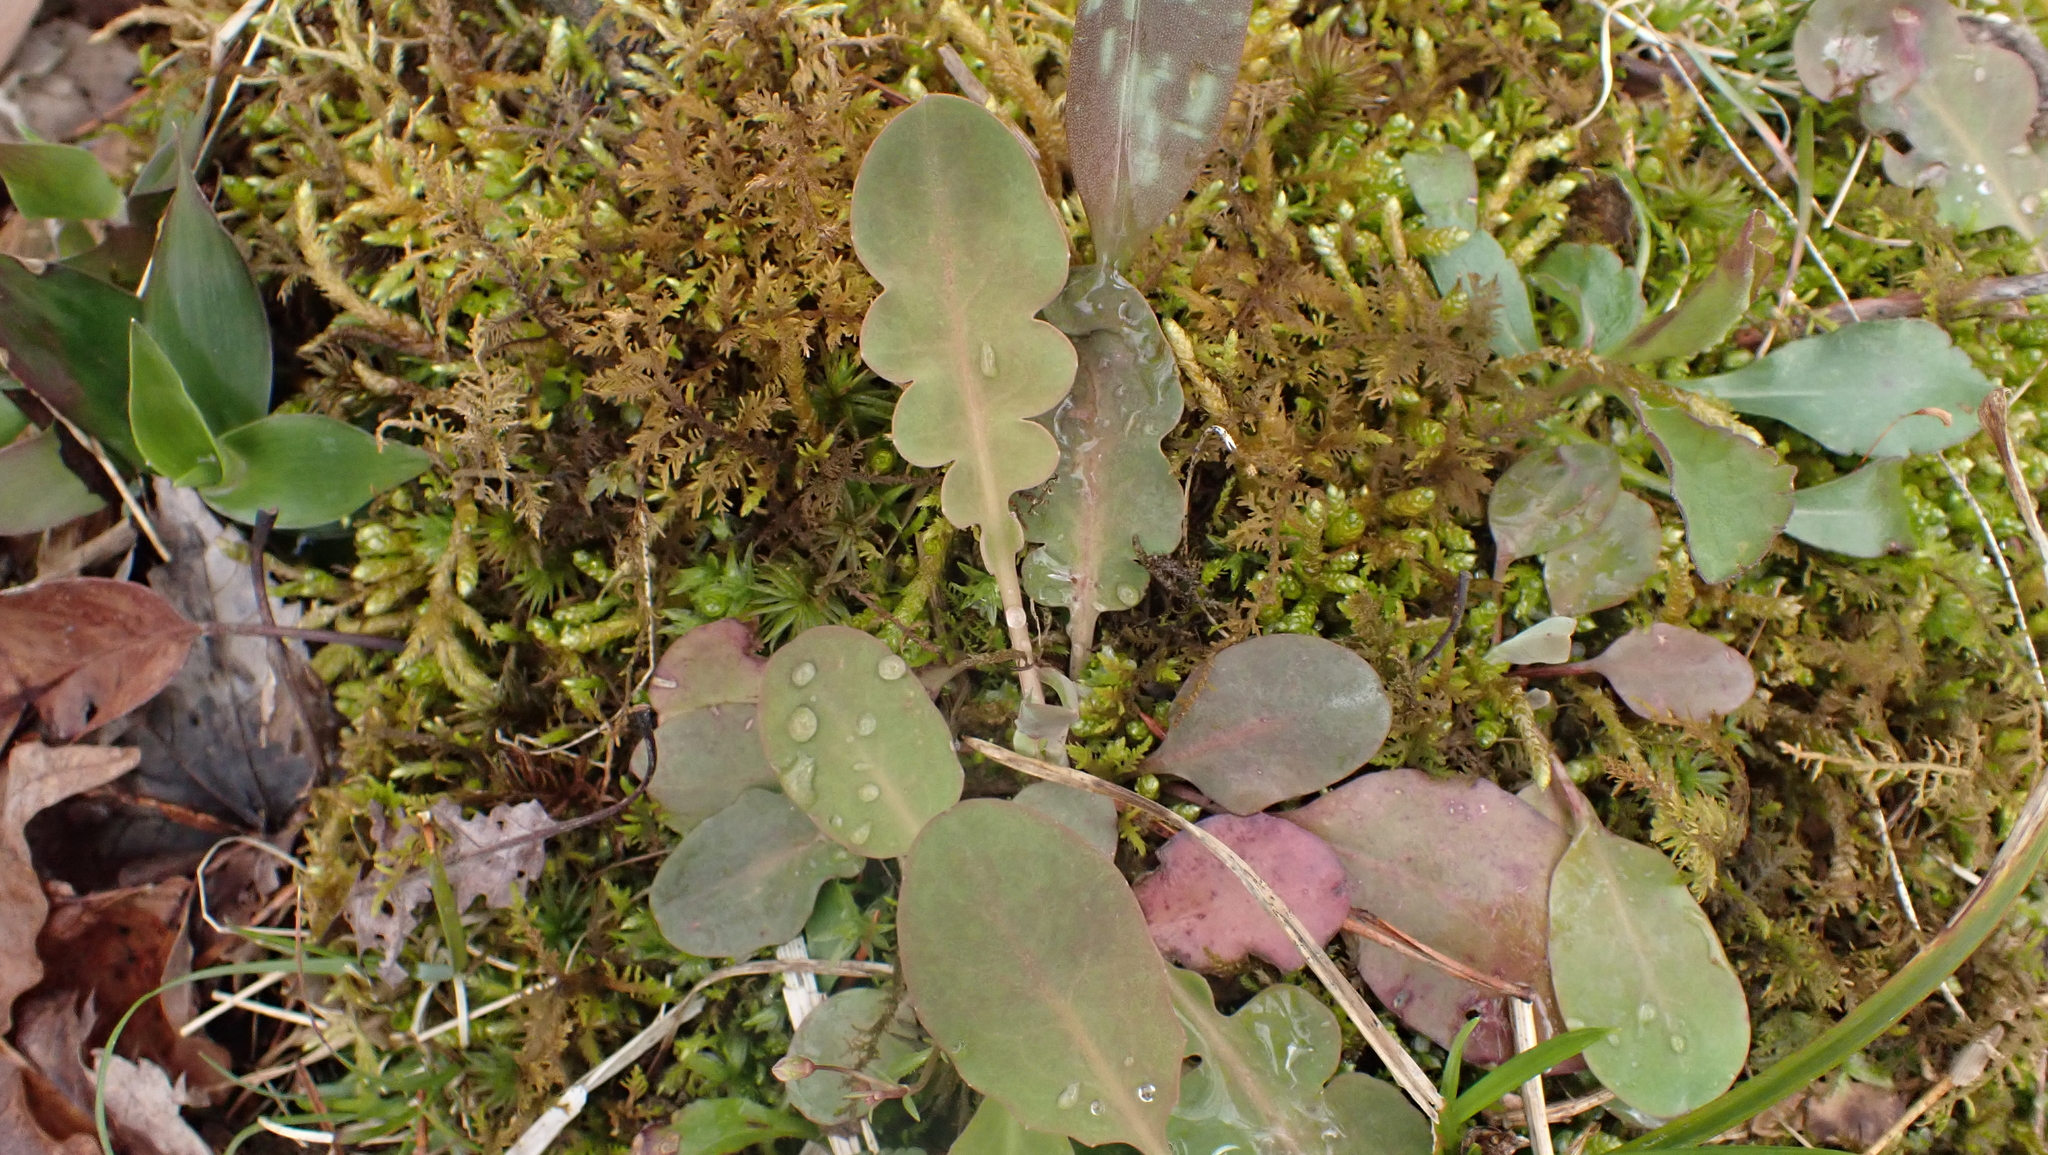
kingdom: Plantae
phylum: Tracheophyta
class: Magnoliopsida
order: Asterales
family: Asteraceae
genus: Krigia
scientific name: Krigia biflora
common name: Orange dwarf-dandelion
